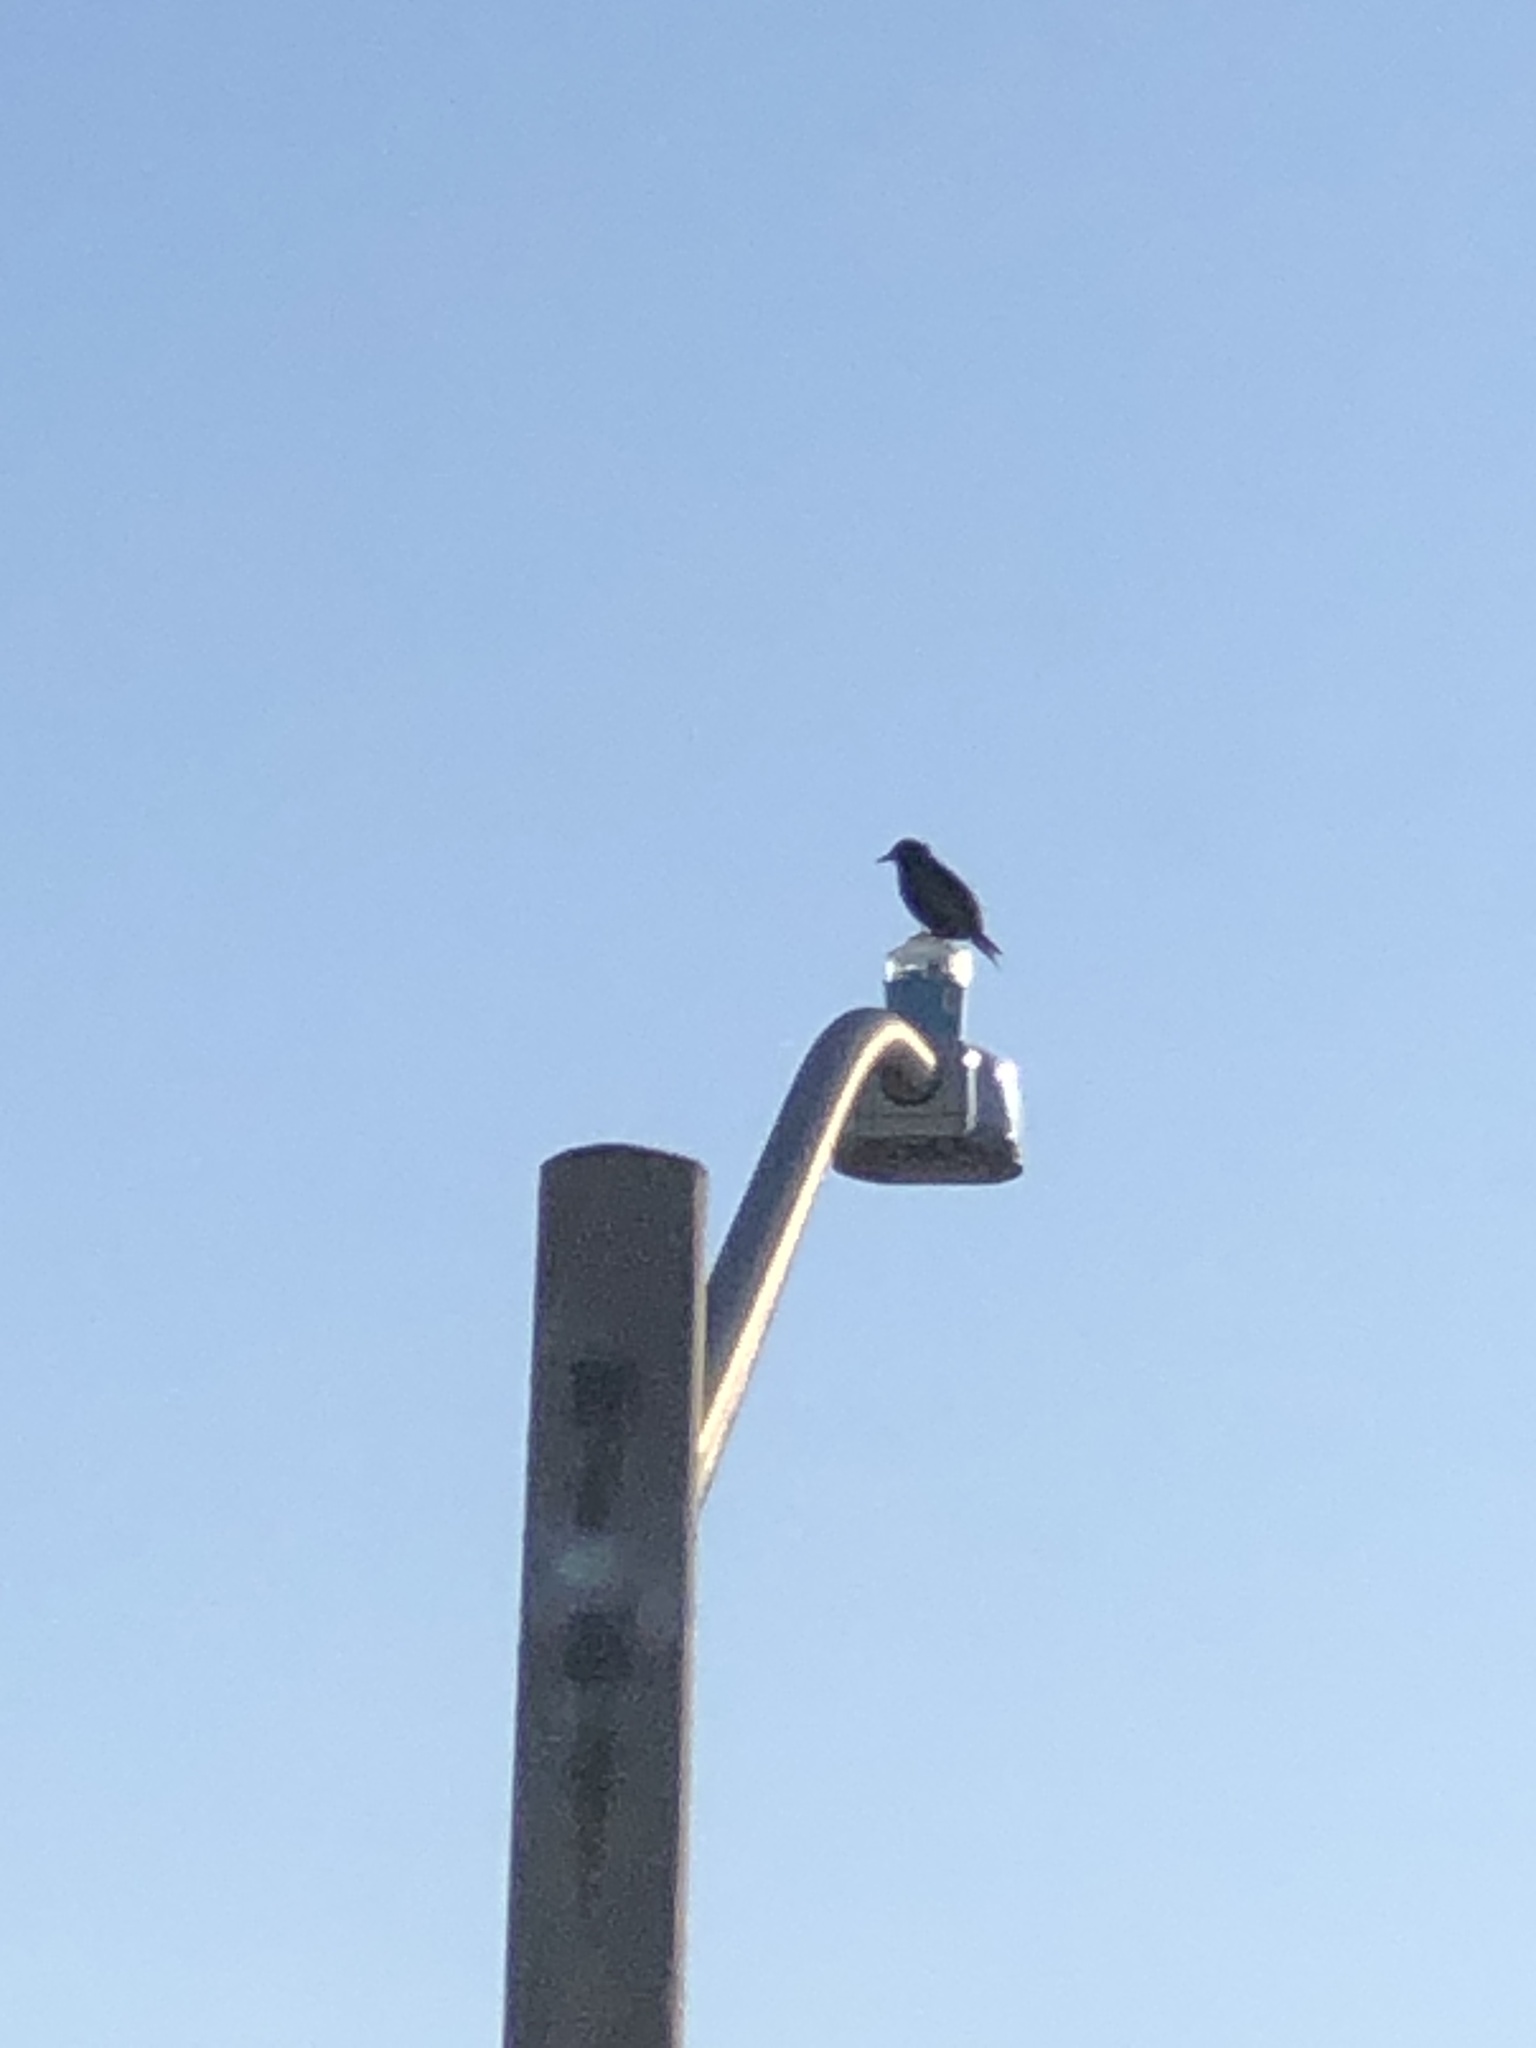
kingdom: Animalia
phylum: Chordata
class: Aves
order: Passeriformes
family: Sturnidae
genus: Sturnus
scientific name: Sturnus vulgaris
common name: Common starling
